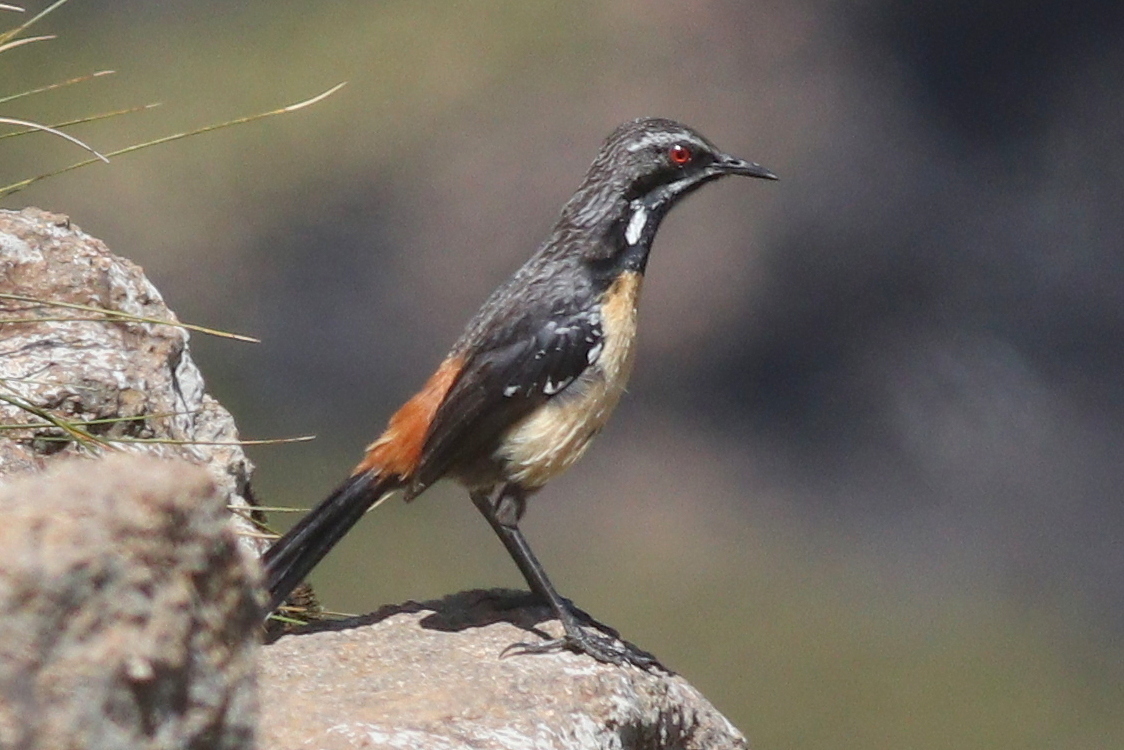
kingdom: Animalia
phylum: Chordata
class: Aves
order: Passeriformes
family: Chaetopidae
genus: Chaetops
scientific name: Chaetops aurantius
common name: Drakensberg rockjumper
